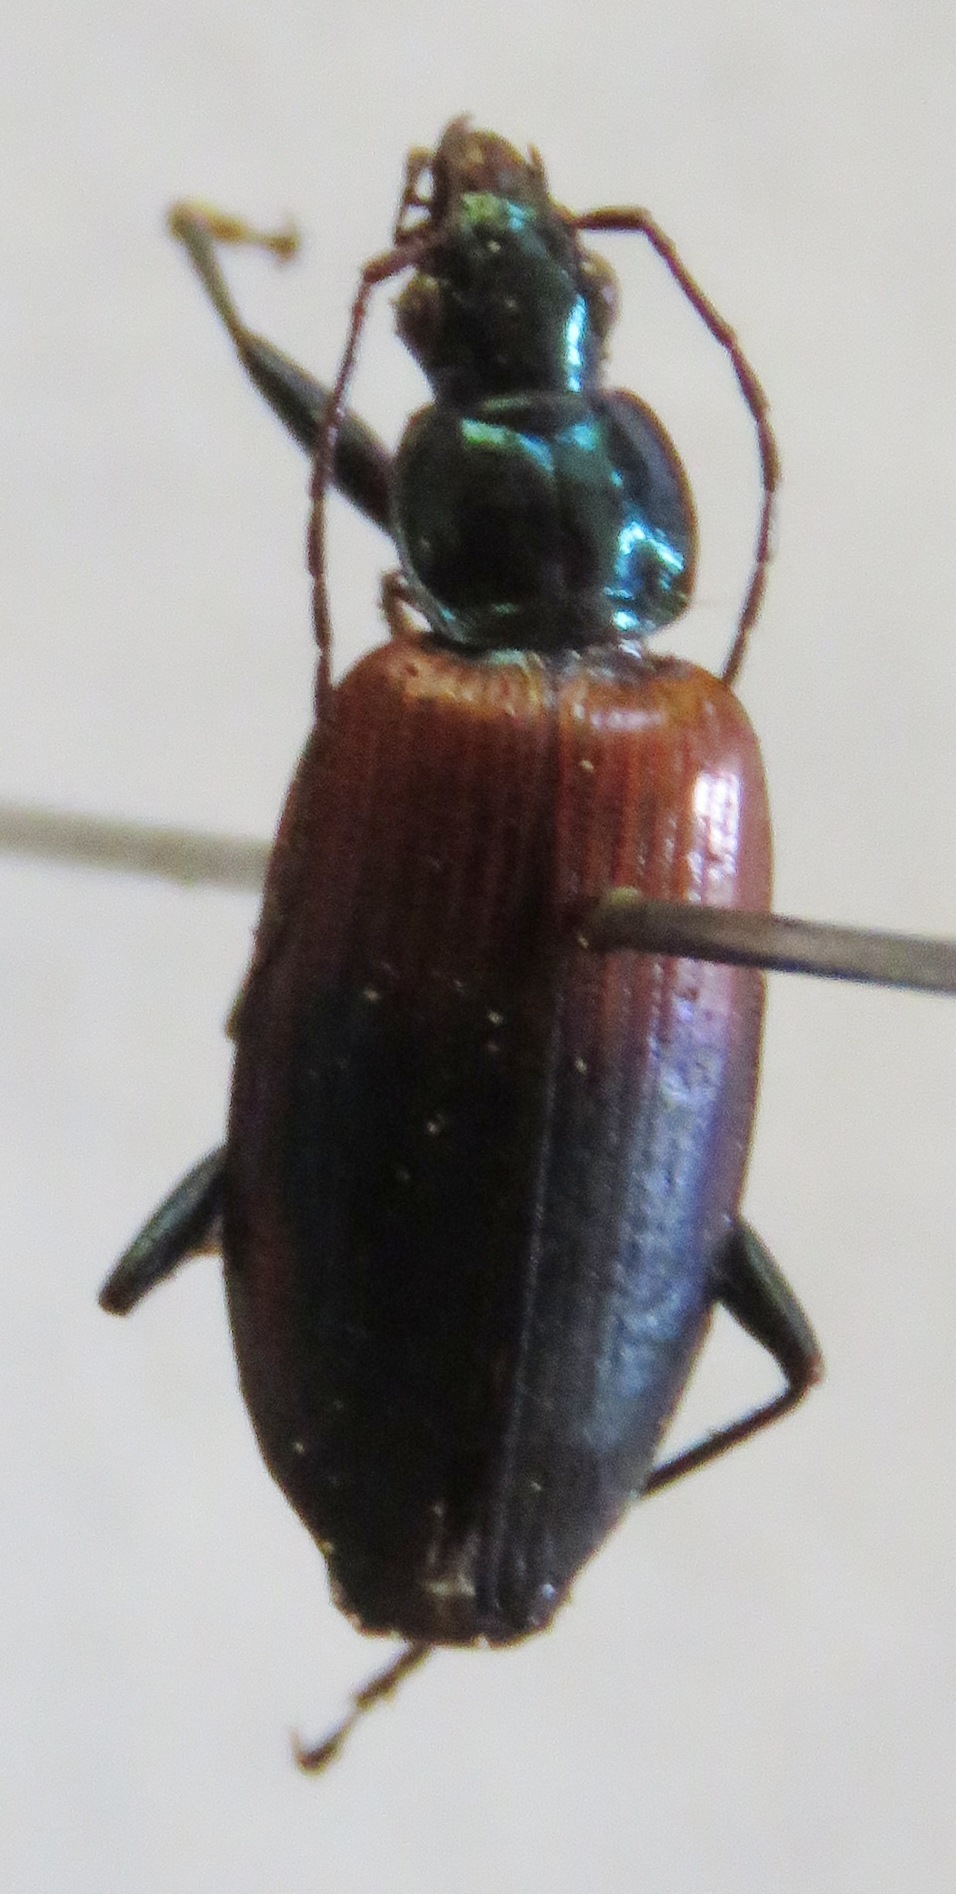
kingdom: Animalia
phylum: Arthropoda
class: Insecta
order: Coleoptera
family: Carabidae
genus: Onypterygia
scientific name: Onypterygia tricolor
